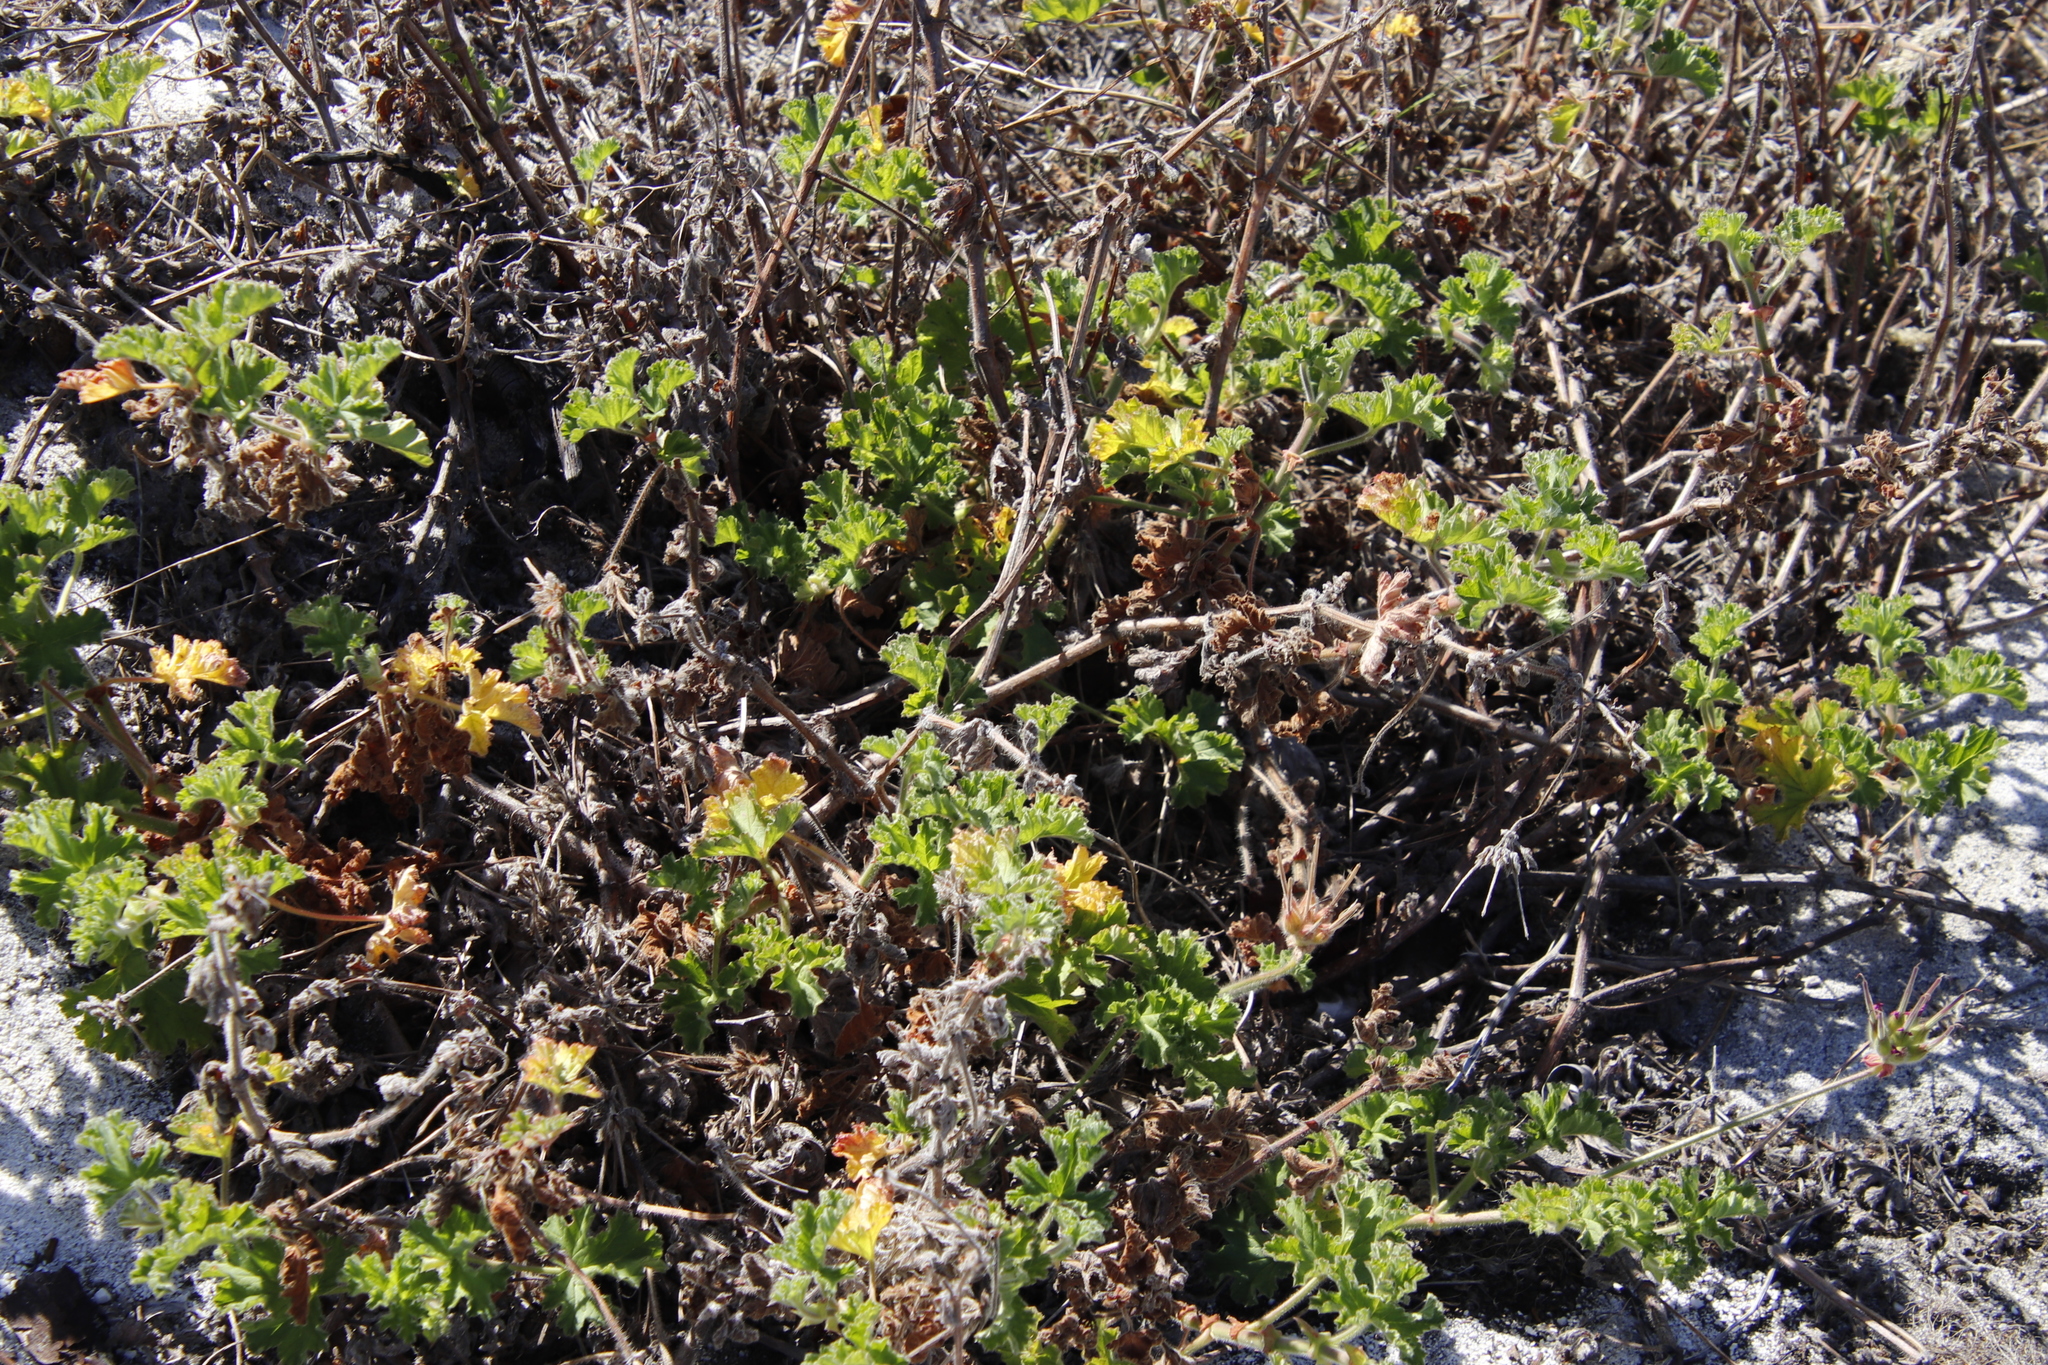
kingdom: Plantae
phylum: Tracheophyta
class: Magnoliopsida
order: Geraniales
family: Geraniaceae
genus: Pelargonium
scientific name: Pelargonium capitatum
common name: Rose scented geranium
